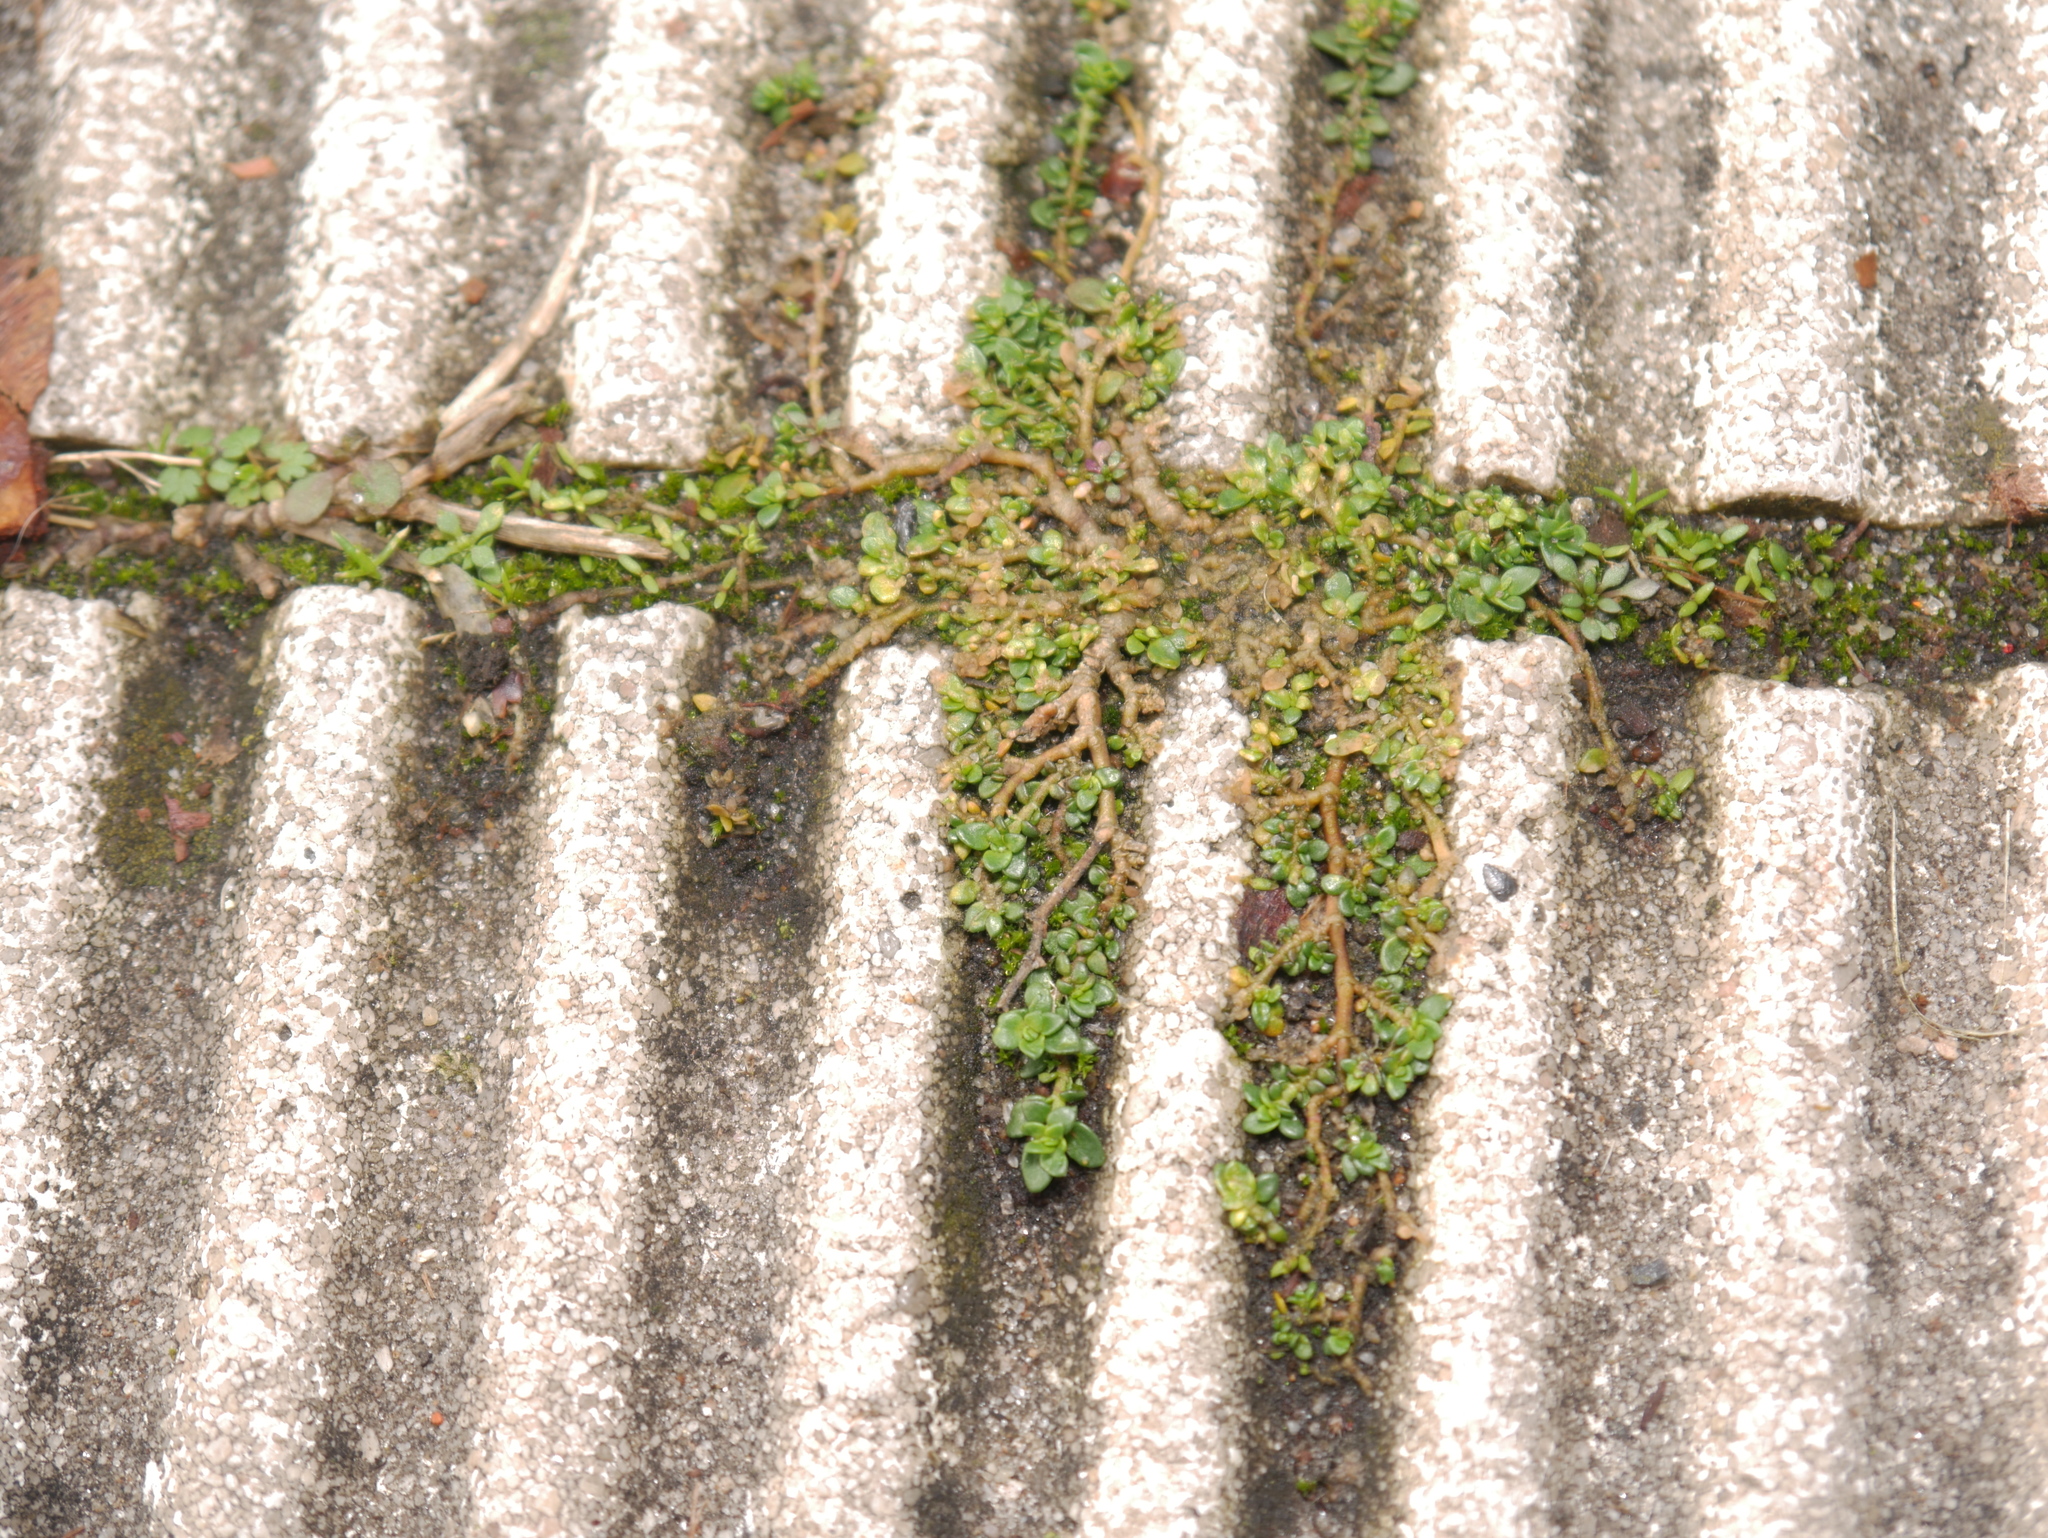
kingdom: Plantae
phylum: Tracheophyta
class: Magnoliopsida
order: Caryophyllales
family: Caryophyllaceae
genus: Herniaria
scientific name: Herniaria glabra
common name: Smooth rupturewort
